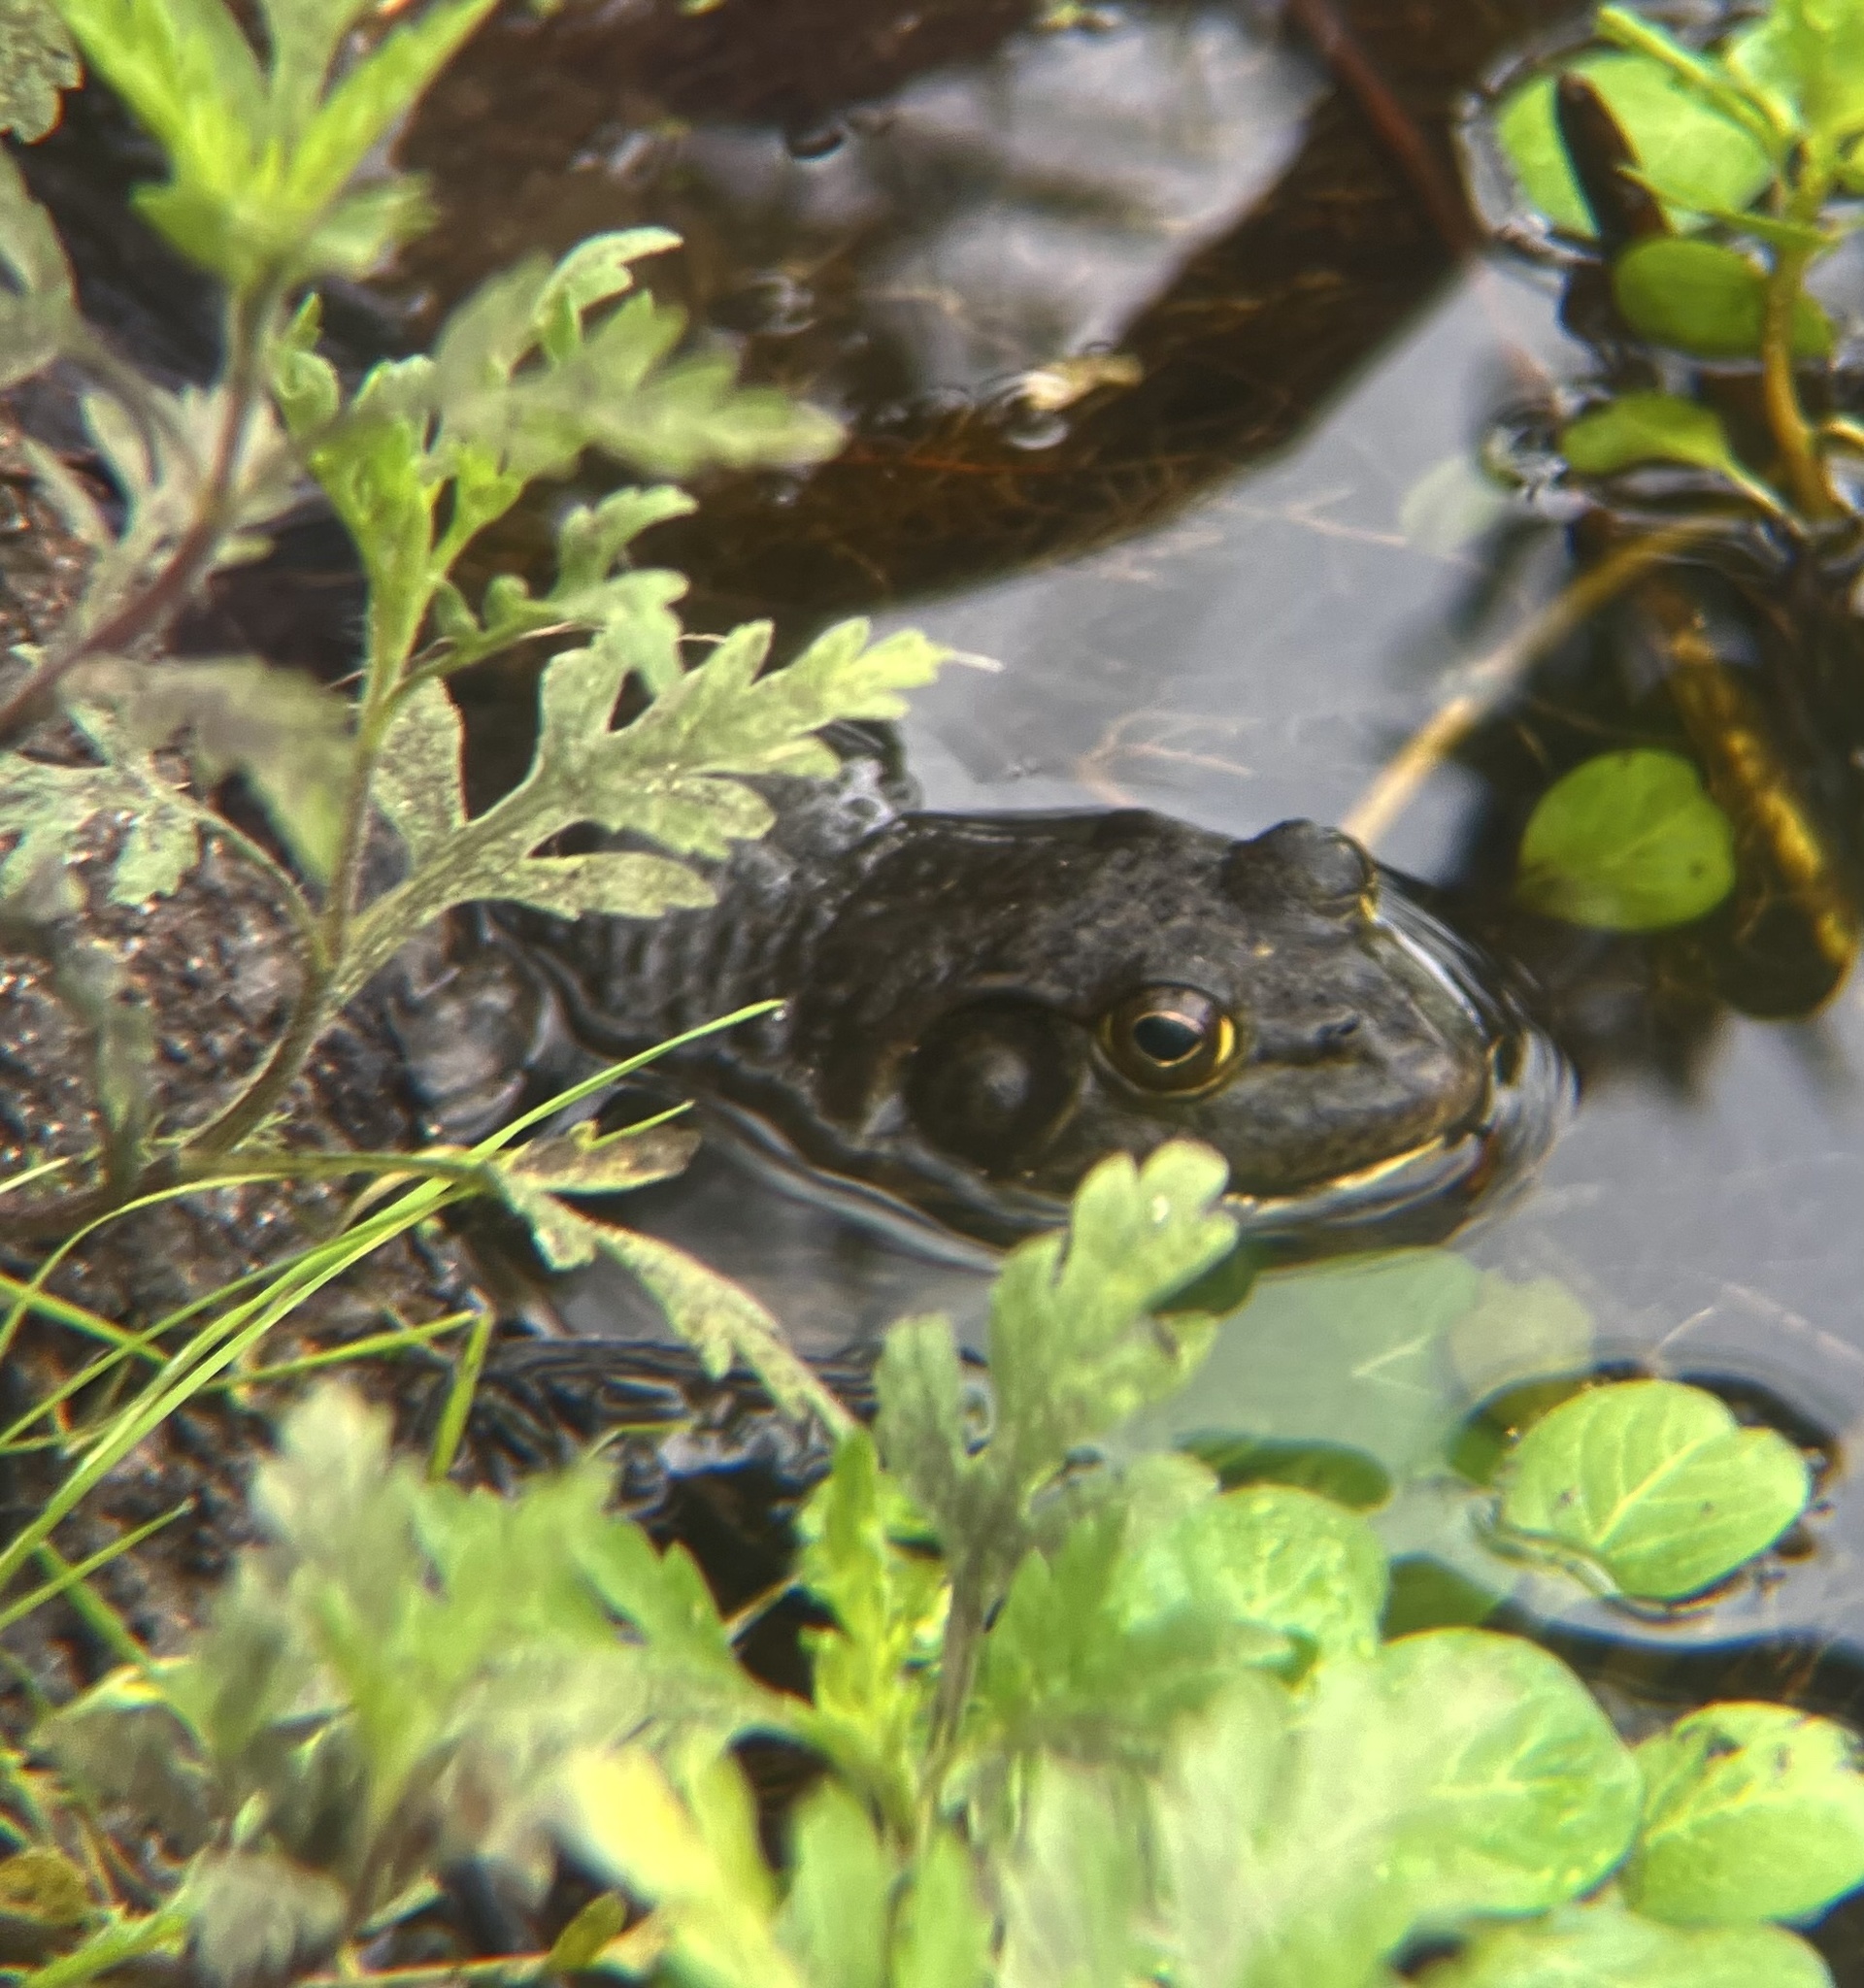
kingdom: Animalia
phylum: Chordata
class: Amphibia
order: Anura
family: Ranidae
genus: Lithobates
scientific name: Lithobates catesbeianus
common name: American bullfrog
